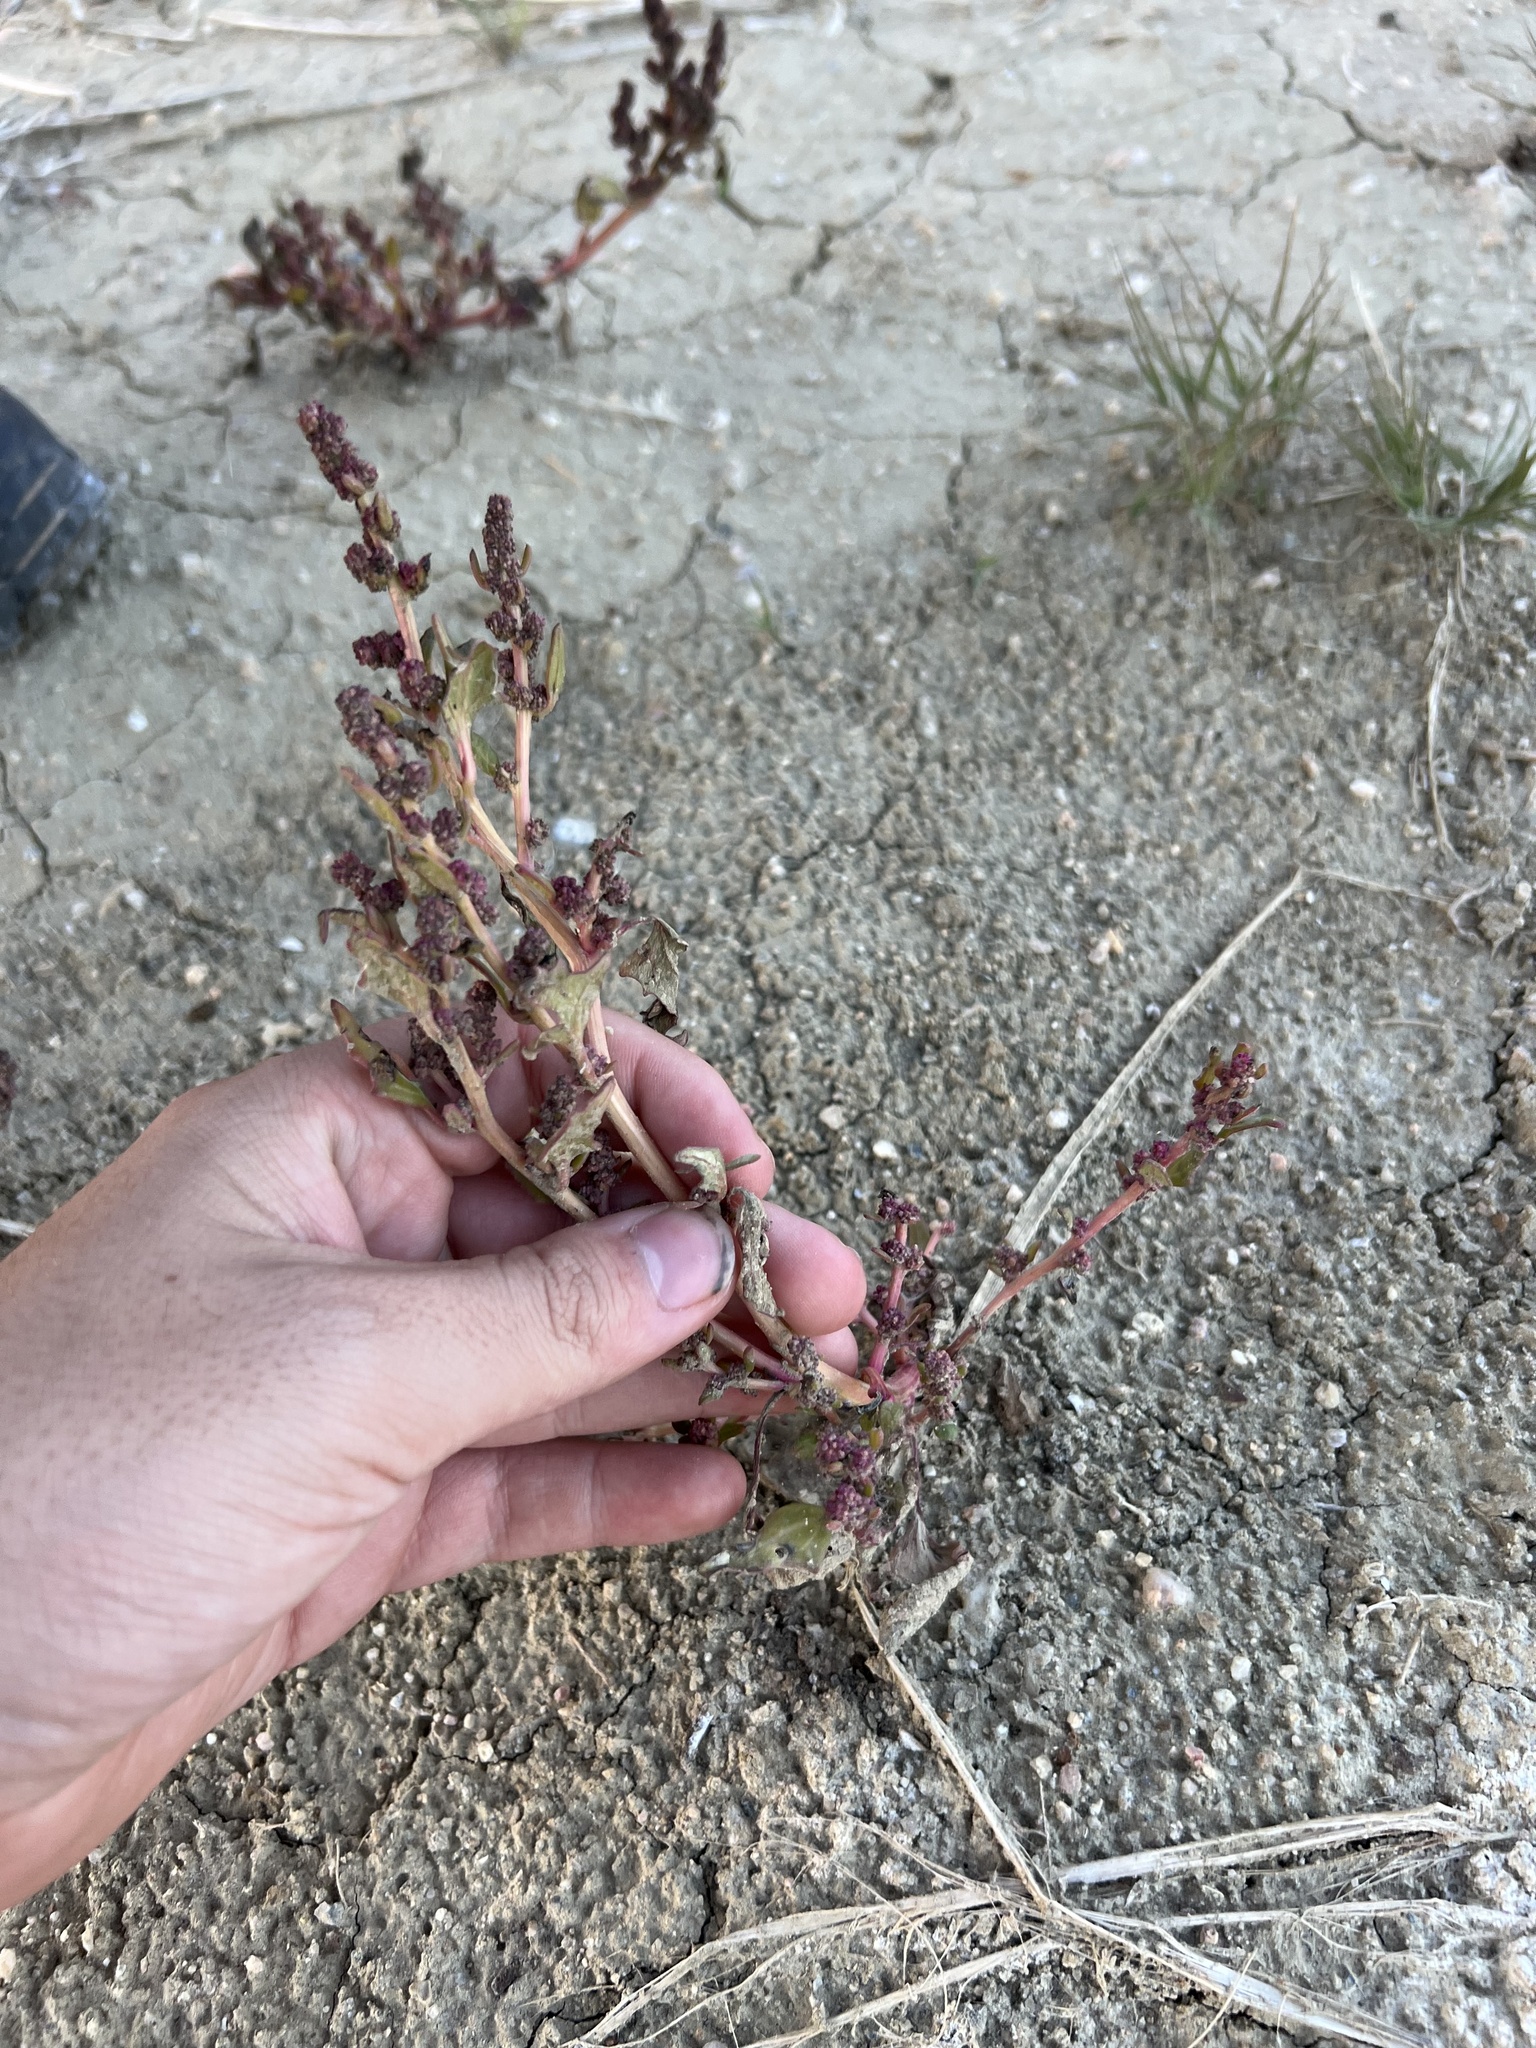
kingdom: Plantae
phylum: Tracheophyta
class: Magnoliopsida
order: Caryophyllales
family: Amaranthaceae
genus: Oxybasis
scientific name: Oxybasis rubra
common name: Red goosefoot
